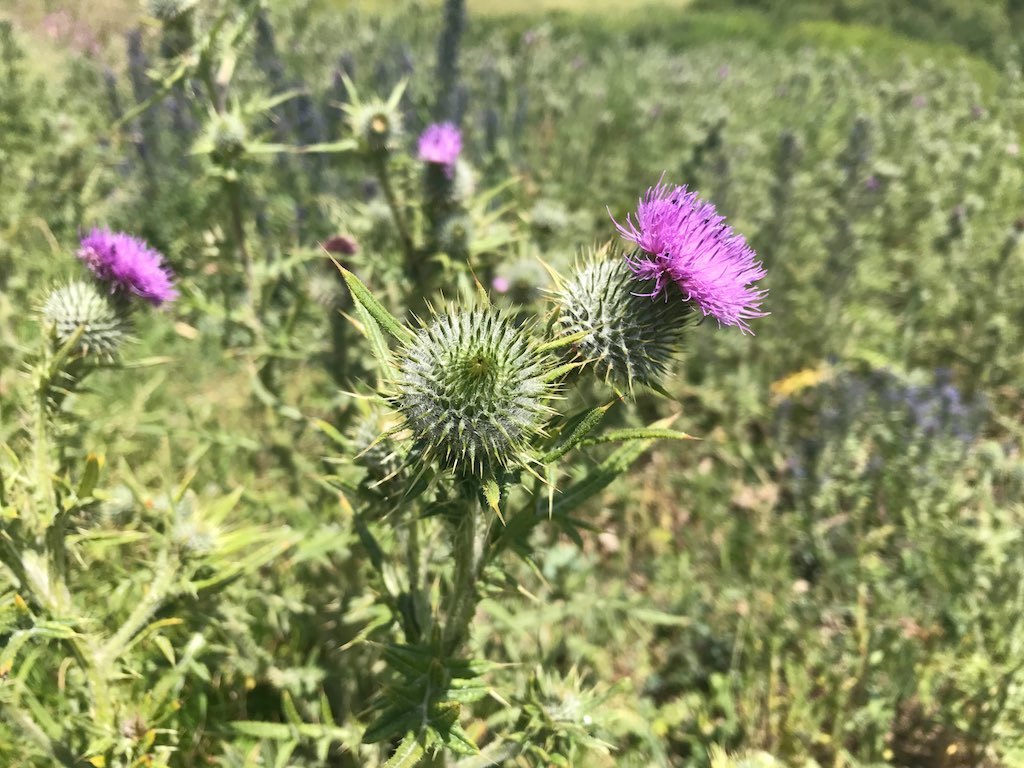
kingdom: Plantae
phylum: Tracheophyta
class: Magnoliopsida
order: Asterales
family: Asteraceae
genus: Cirsium
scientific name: Cirsium vulgare
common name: Bull thistle
